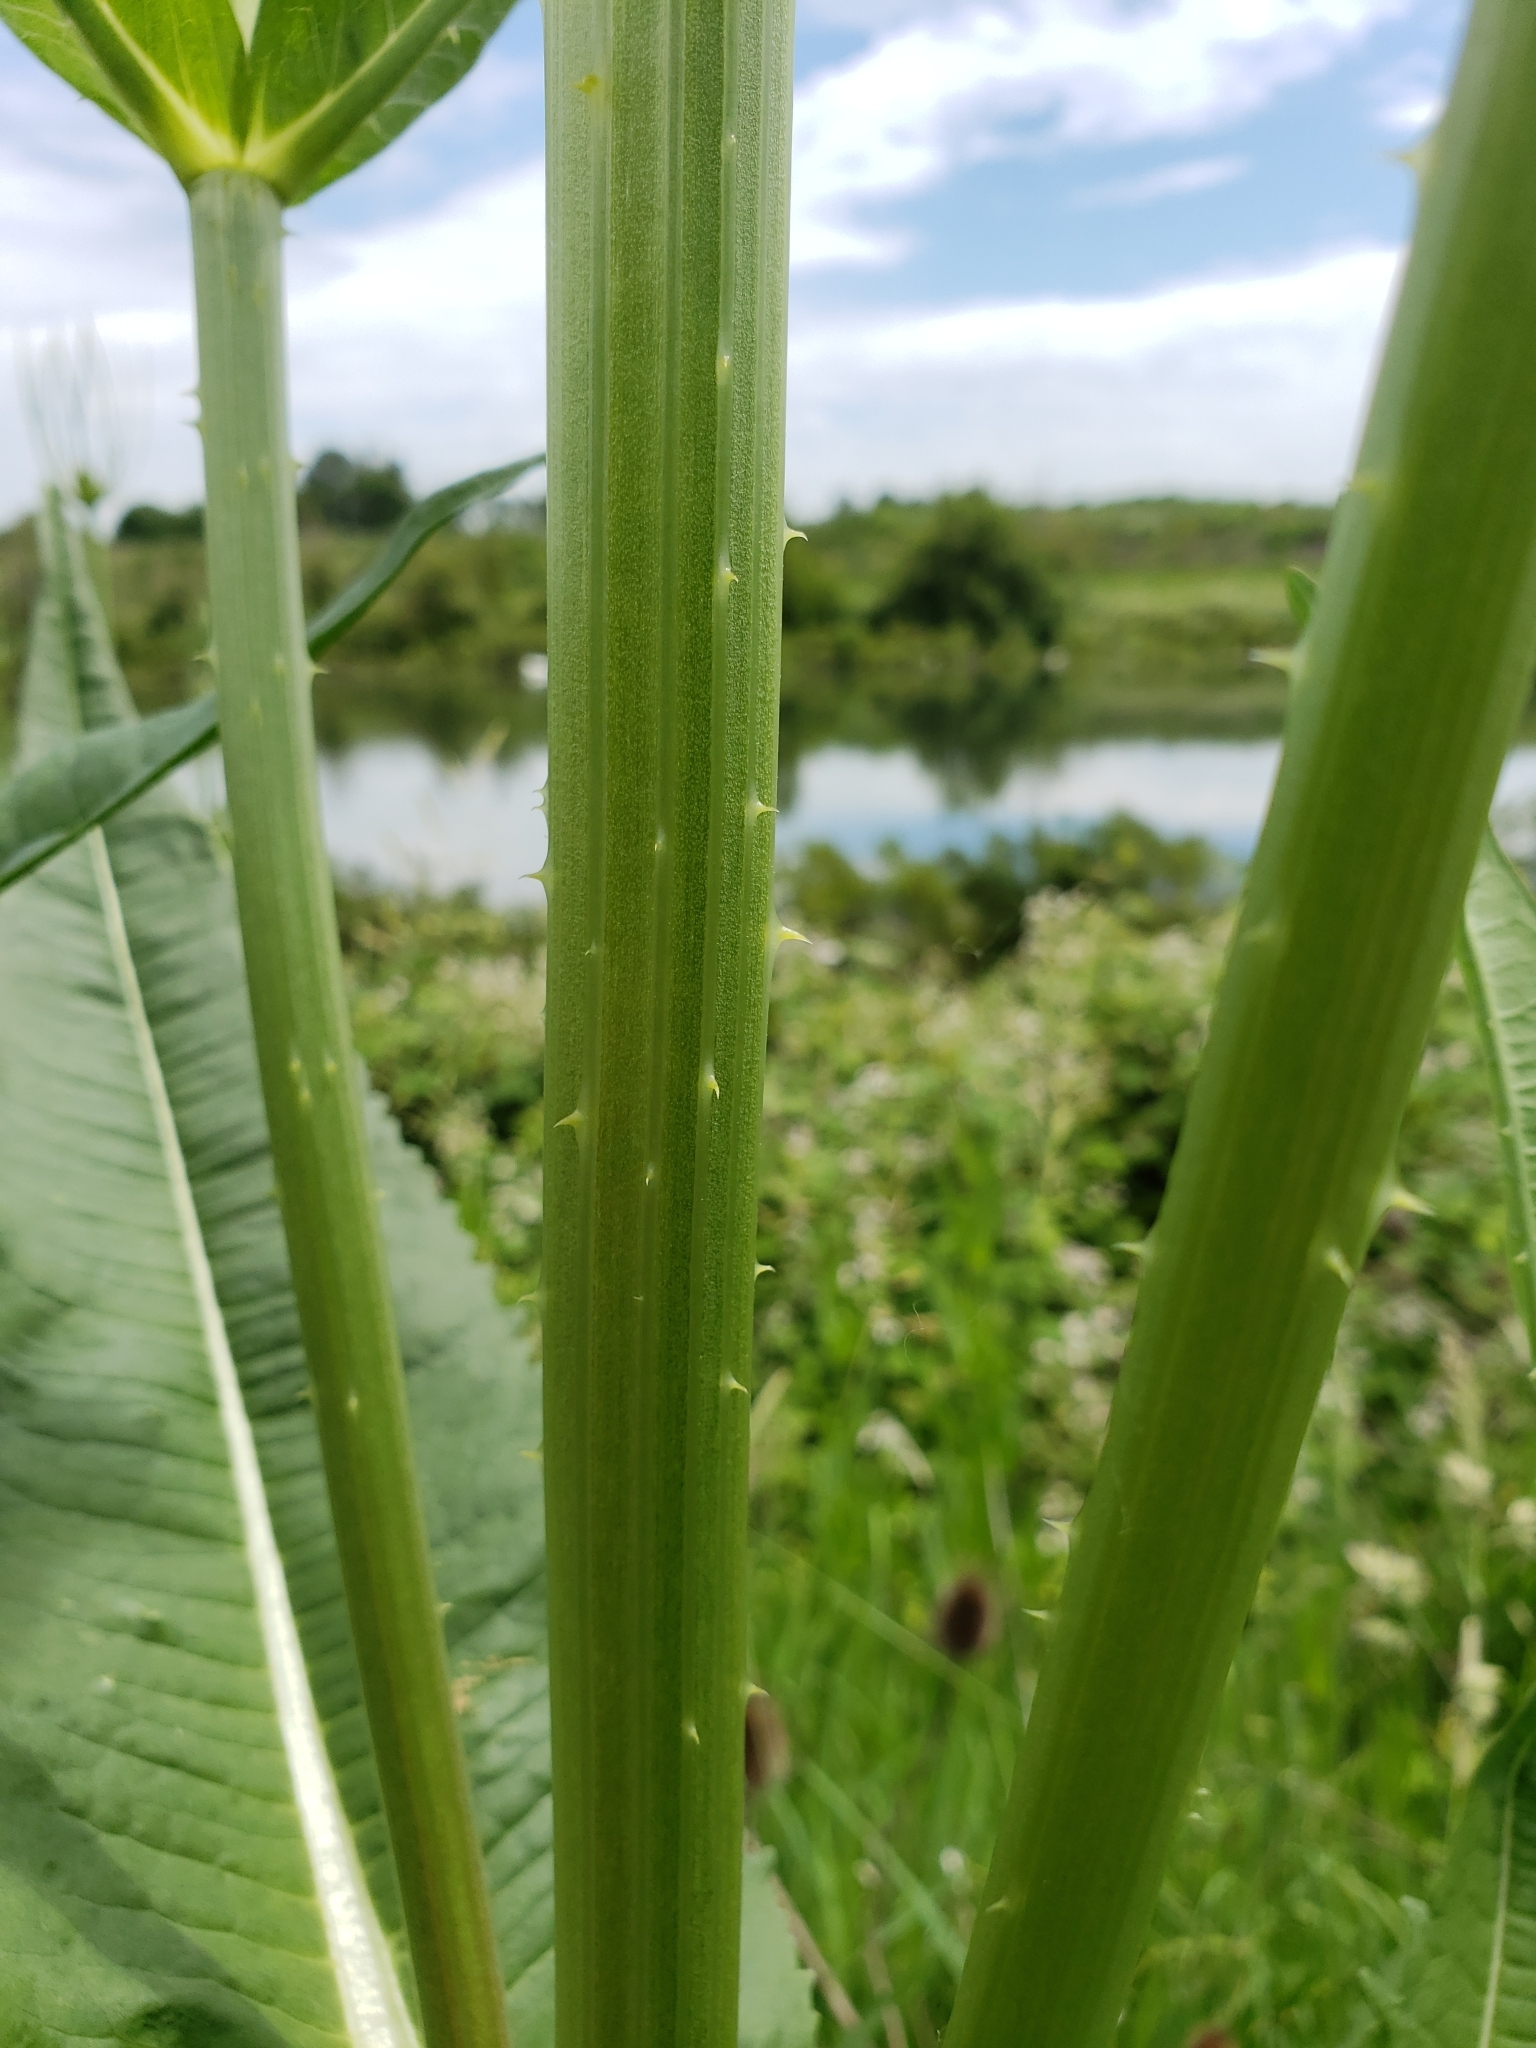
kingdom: Plantae
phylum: Tracheophyta
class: Magnoliopsida
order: Dipsacales
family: Caprifoliaceae
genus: Dipsacus
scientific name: Dipsacus fullonum
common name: Teasel
